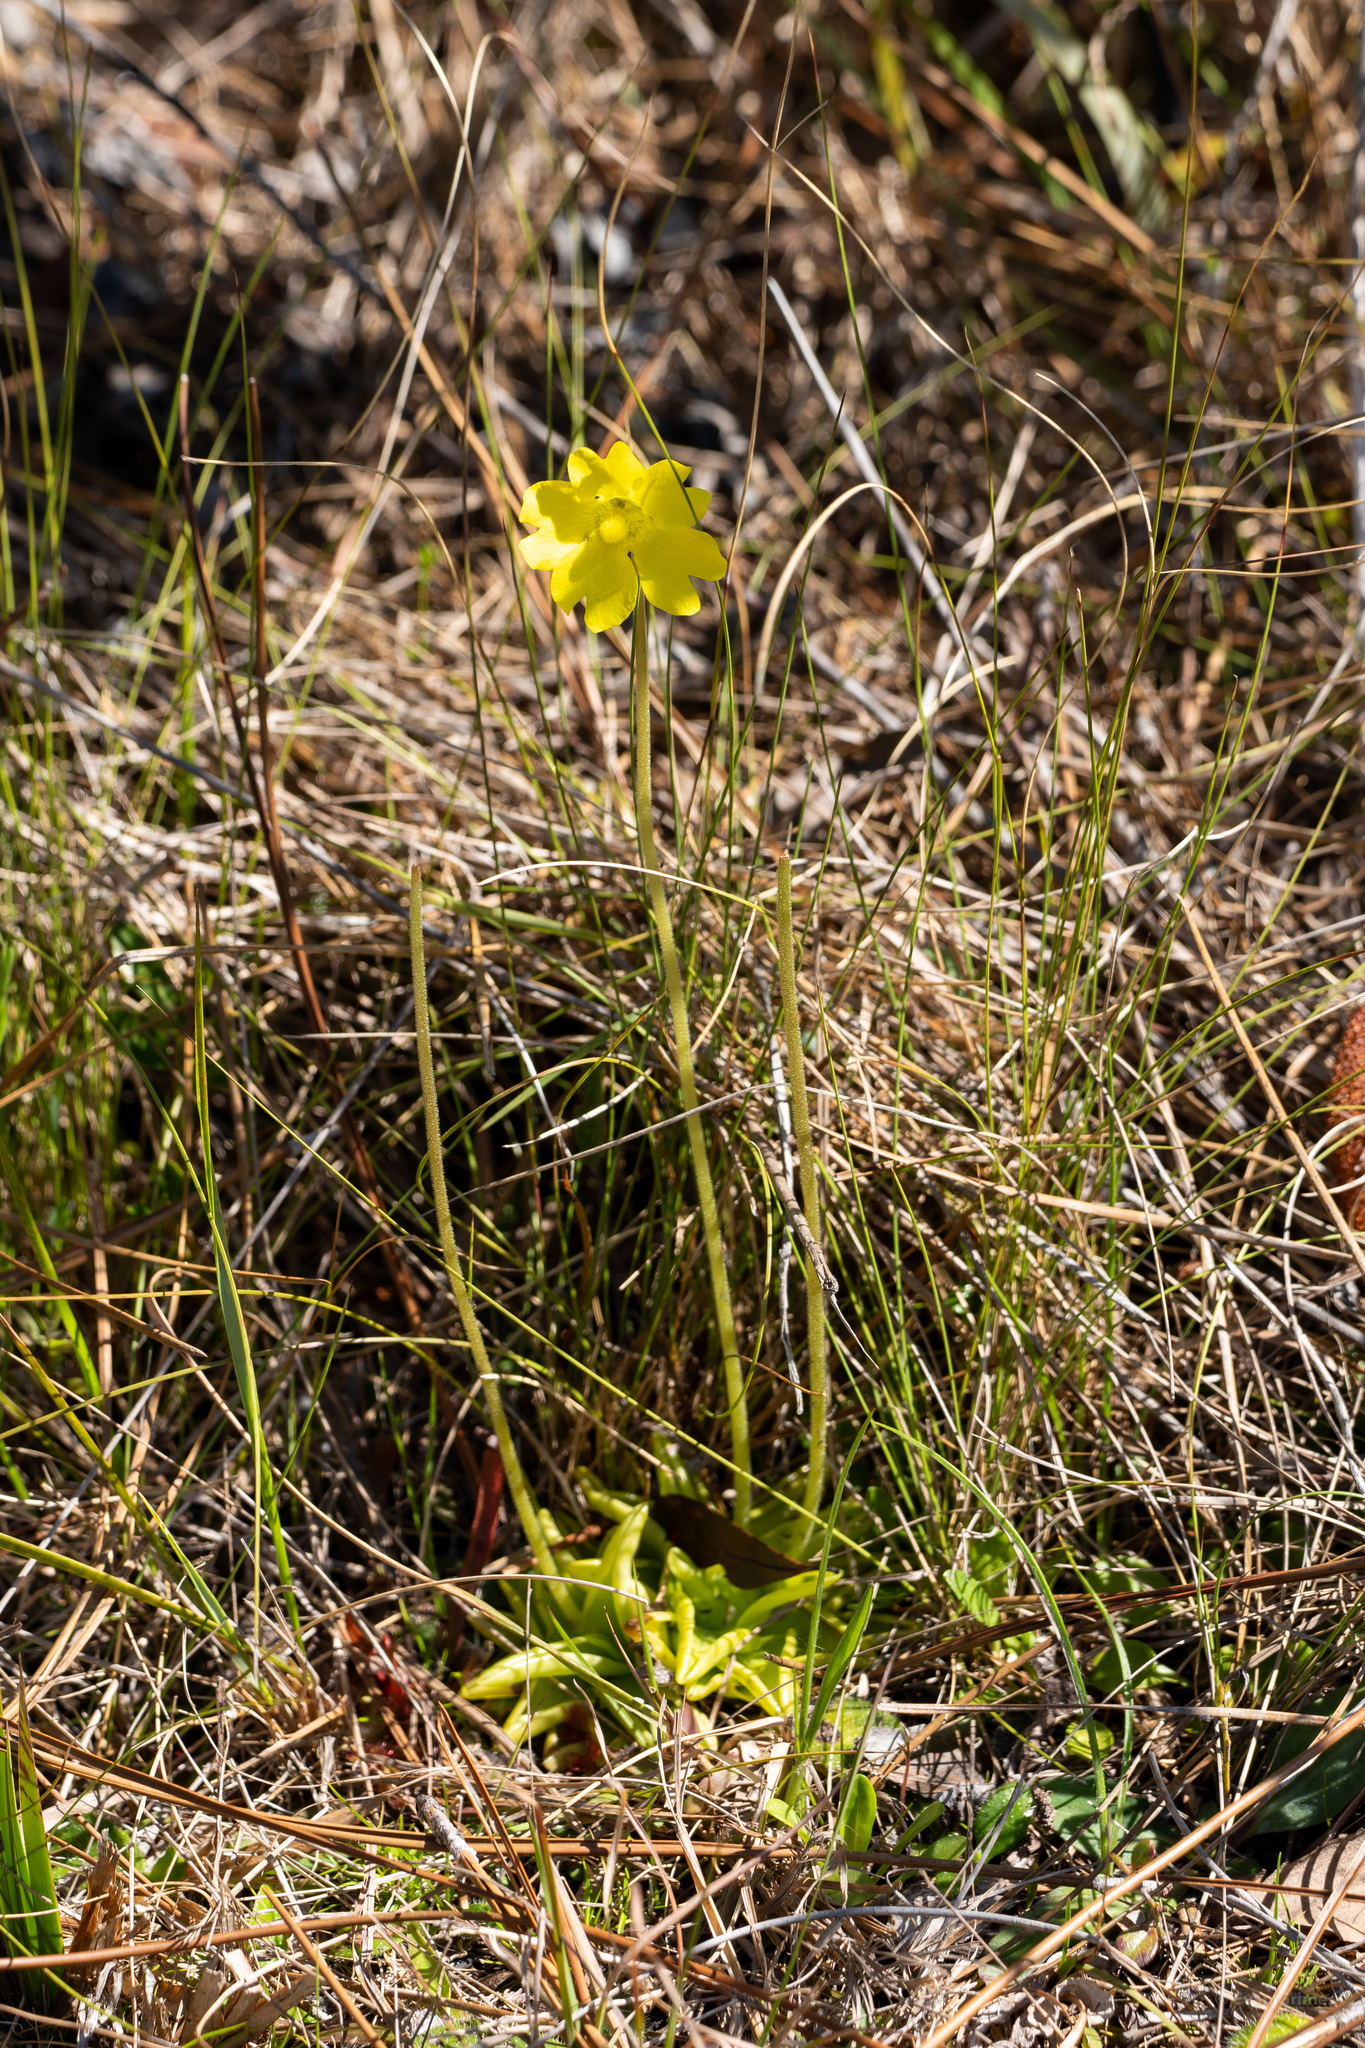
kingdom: Plantae
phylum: Tracheophyta
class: Magnoliopsida
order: Lamiales
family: Lentibulariaceae
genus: Pinguicula
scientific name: Pinguicula lutea
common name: Yellow butterwort
